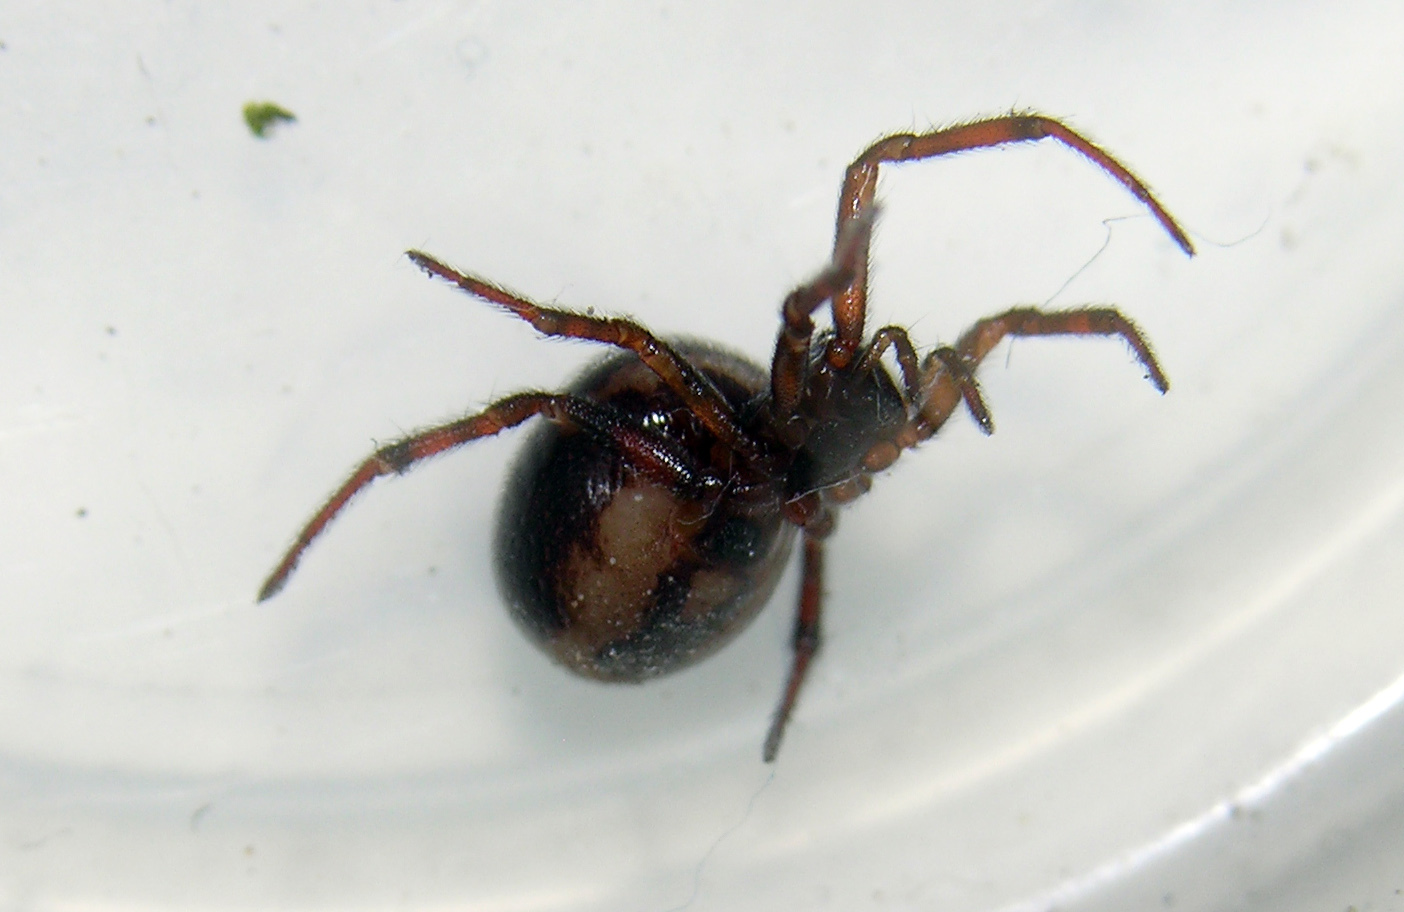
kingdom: Animalia
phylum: Arthropoda
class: Arachnida
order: Araneae
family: Theridiidae
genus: Steatoda
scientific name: Steatoda bipunctata
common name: False widow
